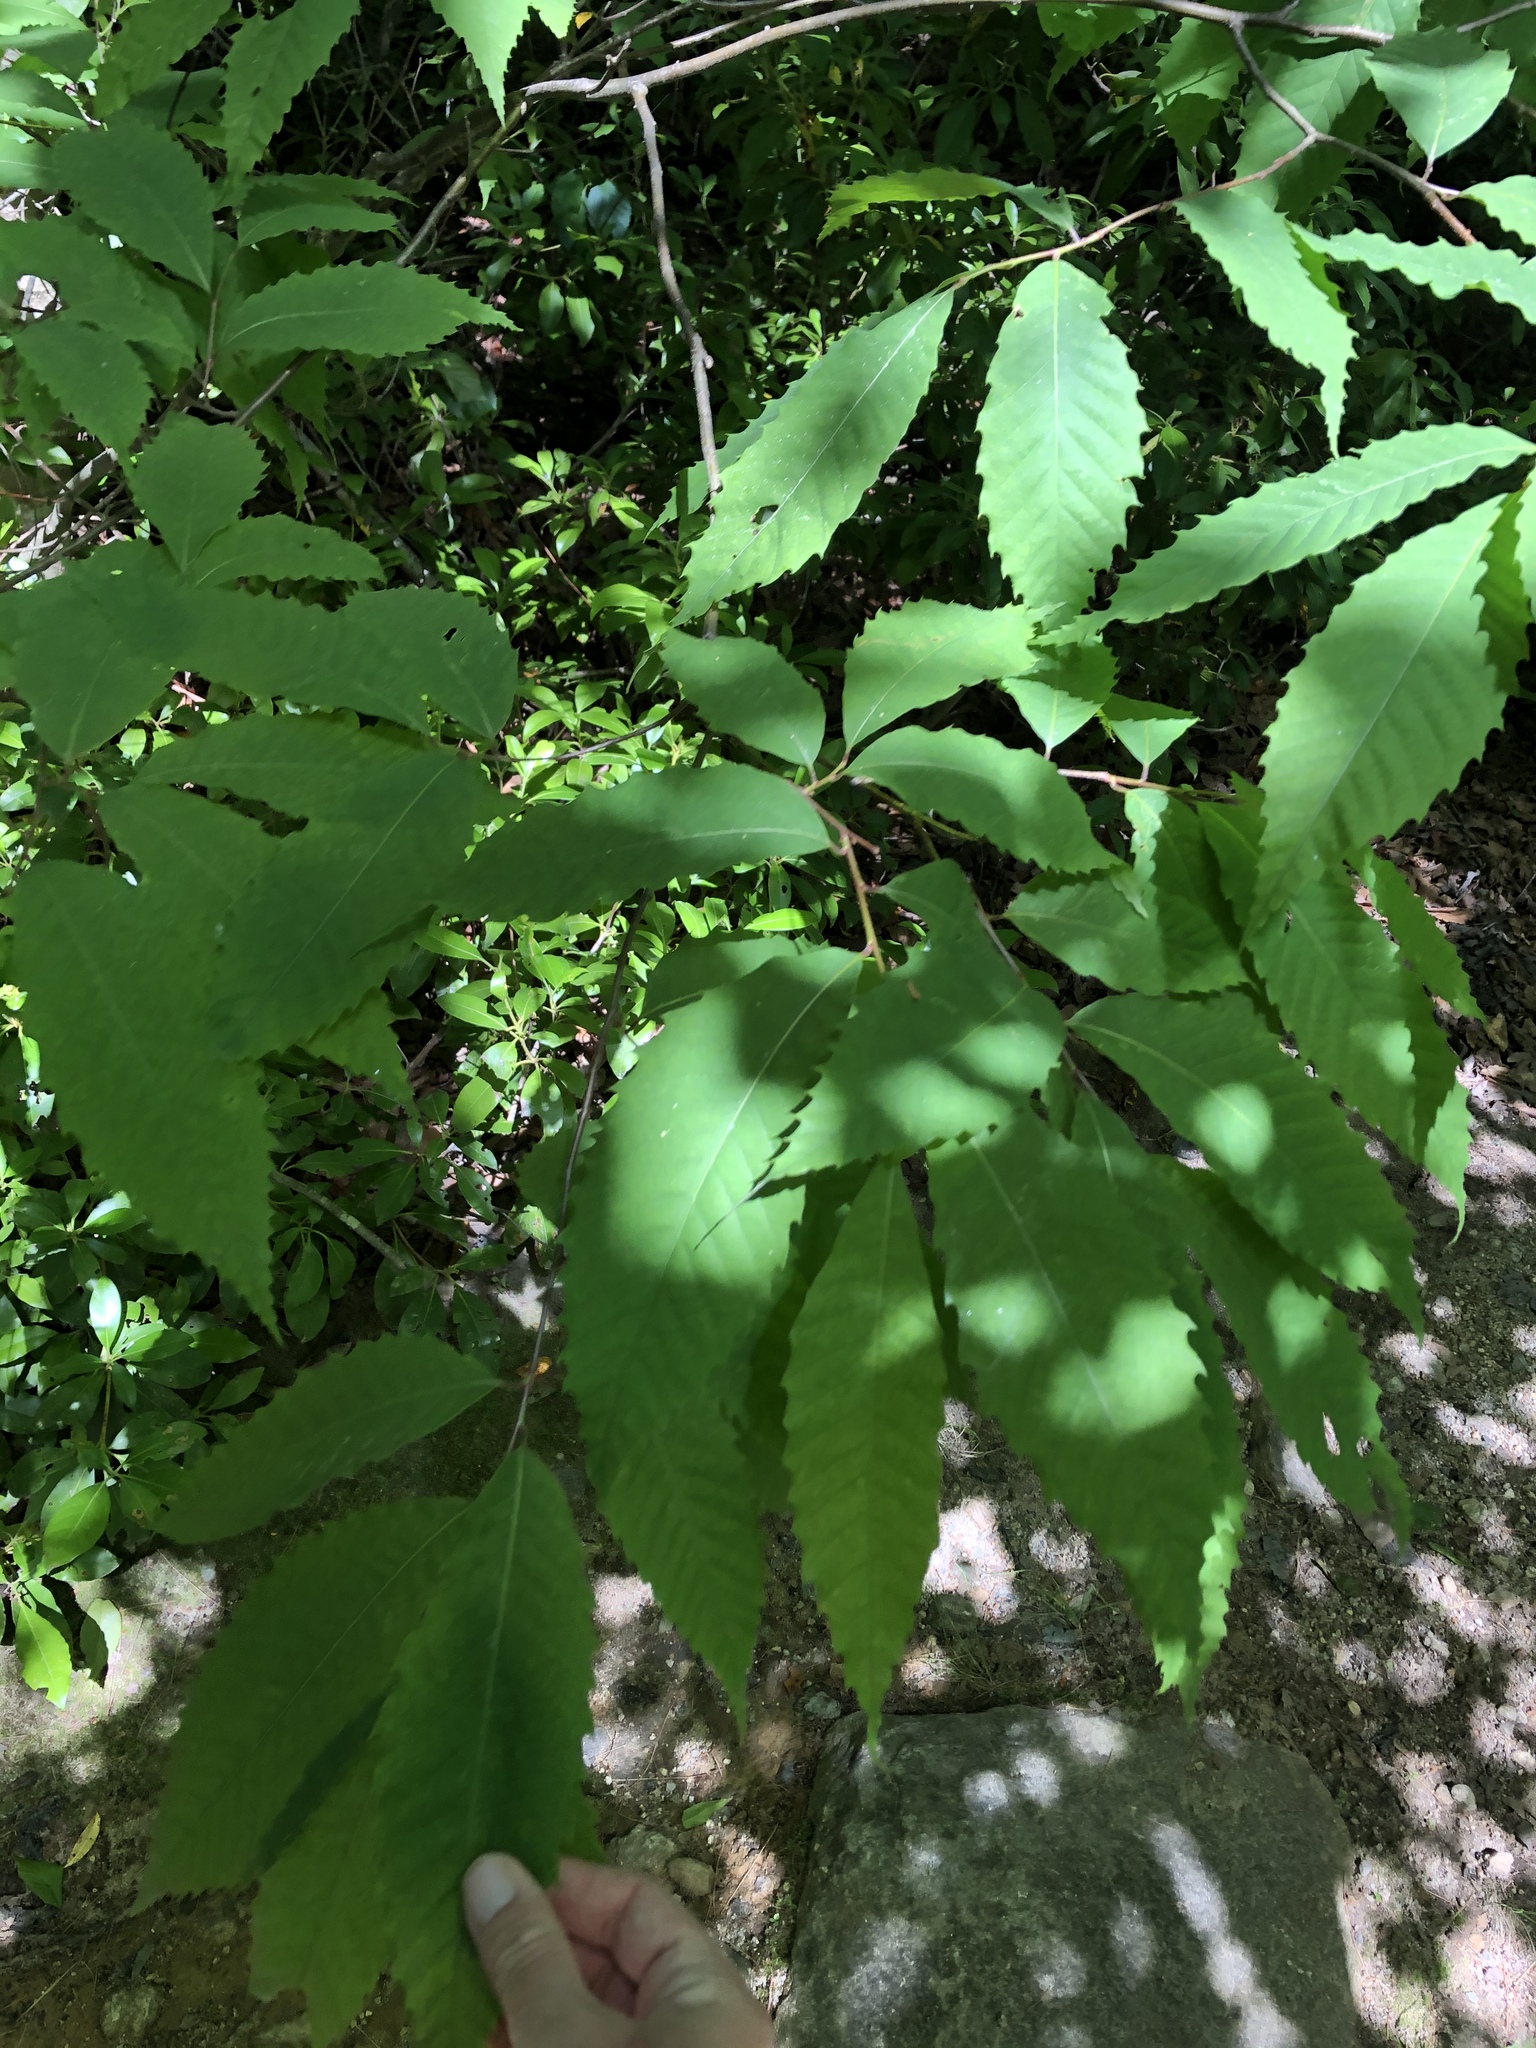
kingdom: Plantae
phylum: Tracheophyta
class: Magnoliopsida
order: Fagales
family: Fagaceae
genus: Castanea
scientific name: Castanea dentata
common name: American chestnut
